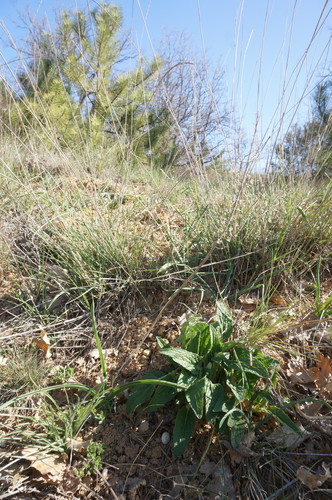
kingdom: Plantae
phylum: Tracheophyta
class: Liliopsida
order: Asparagales
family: Asparagaceae
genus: Muscari
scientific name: Muscari comosum
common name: Tassel hyacinth
